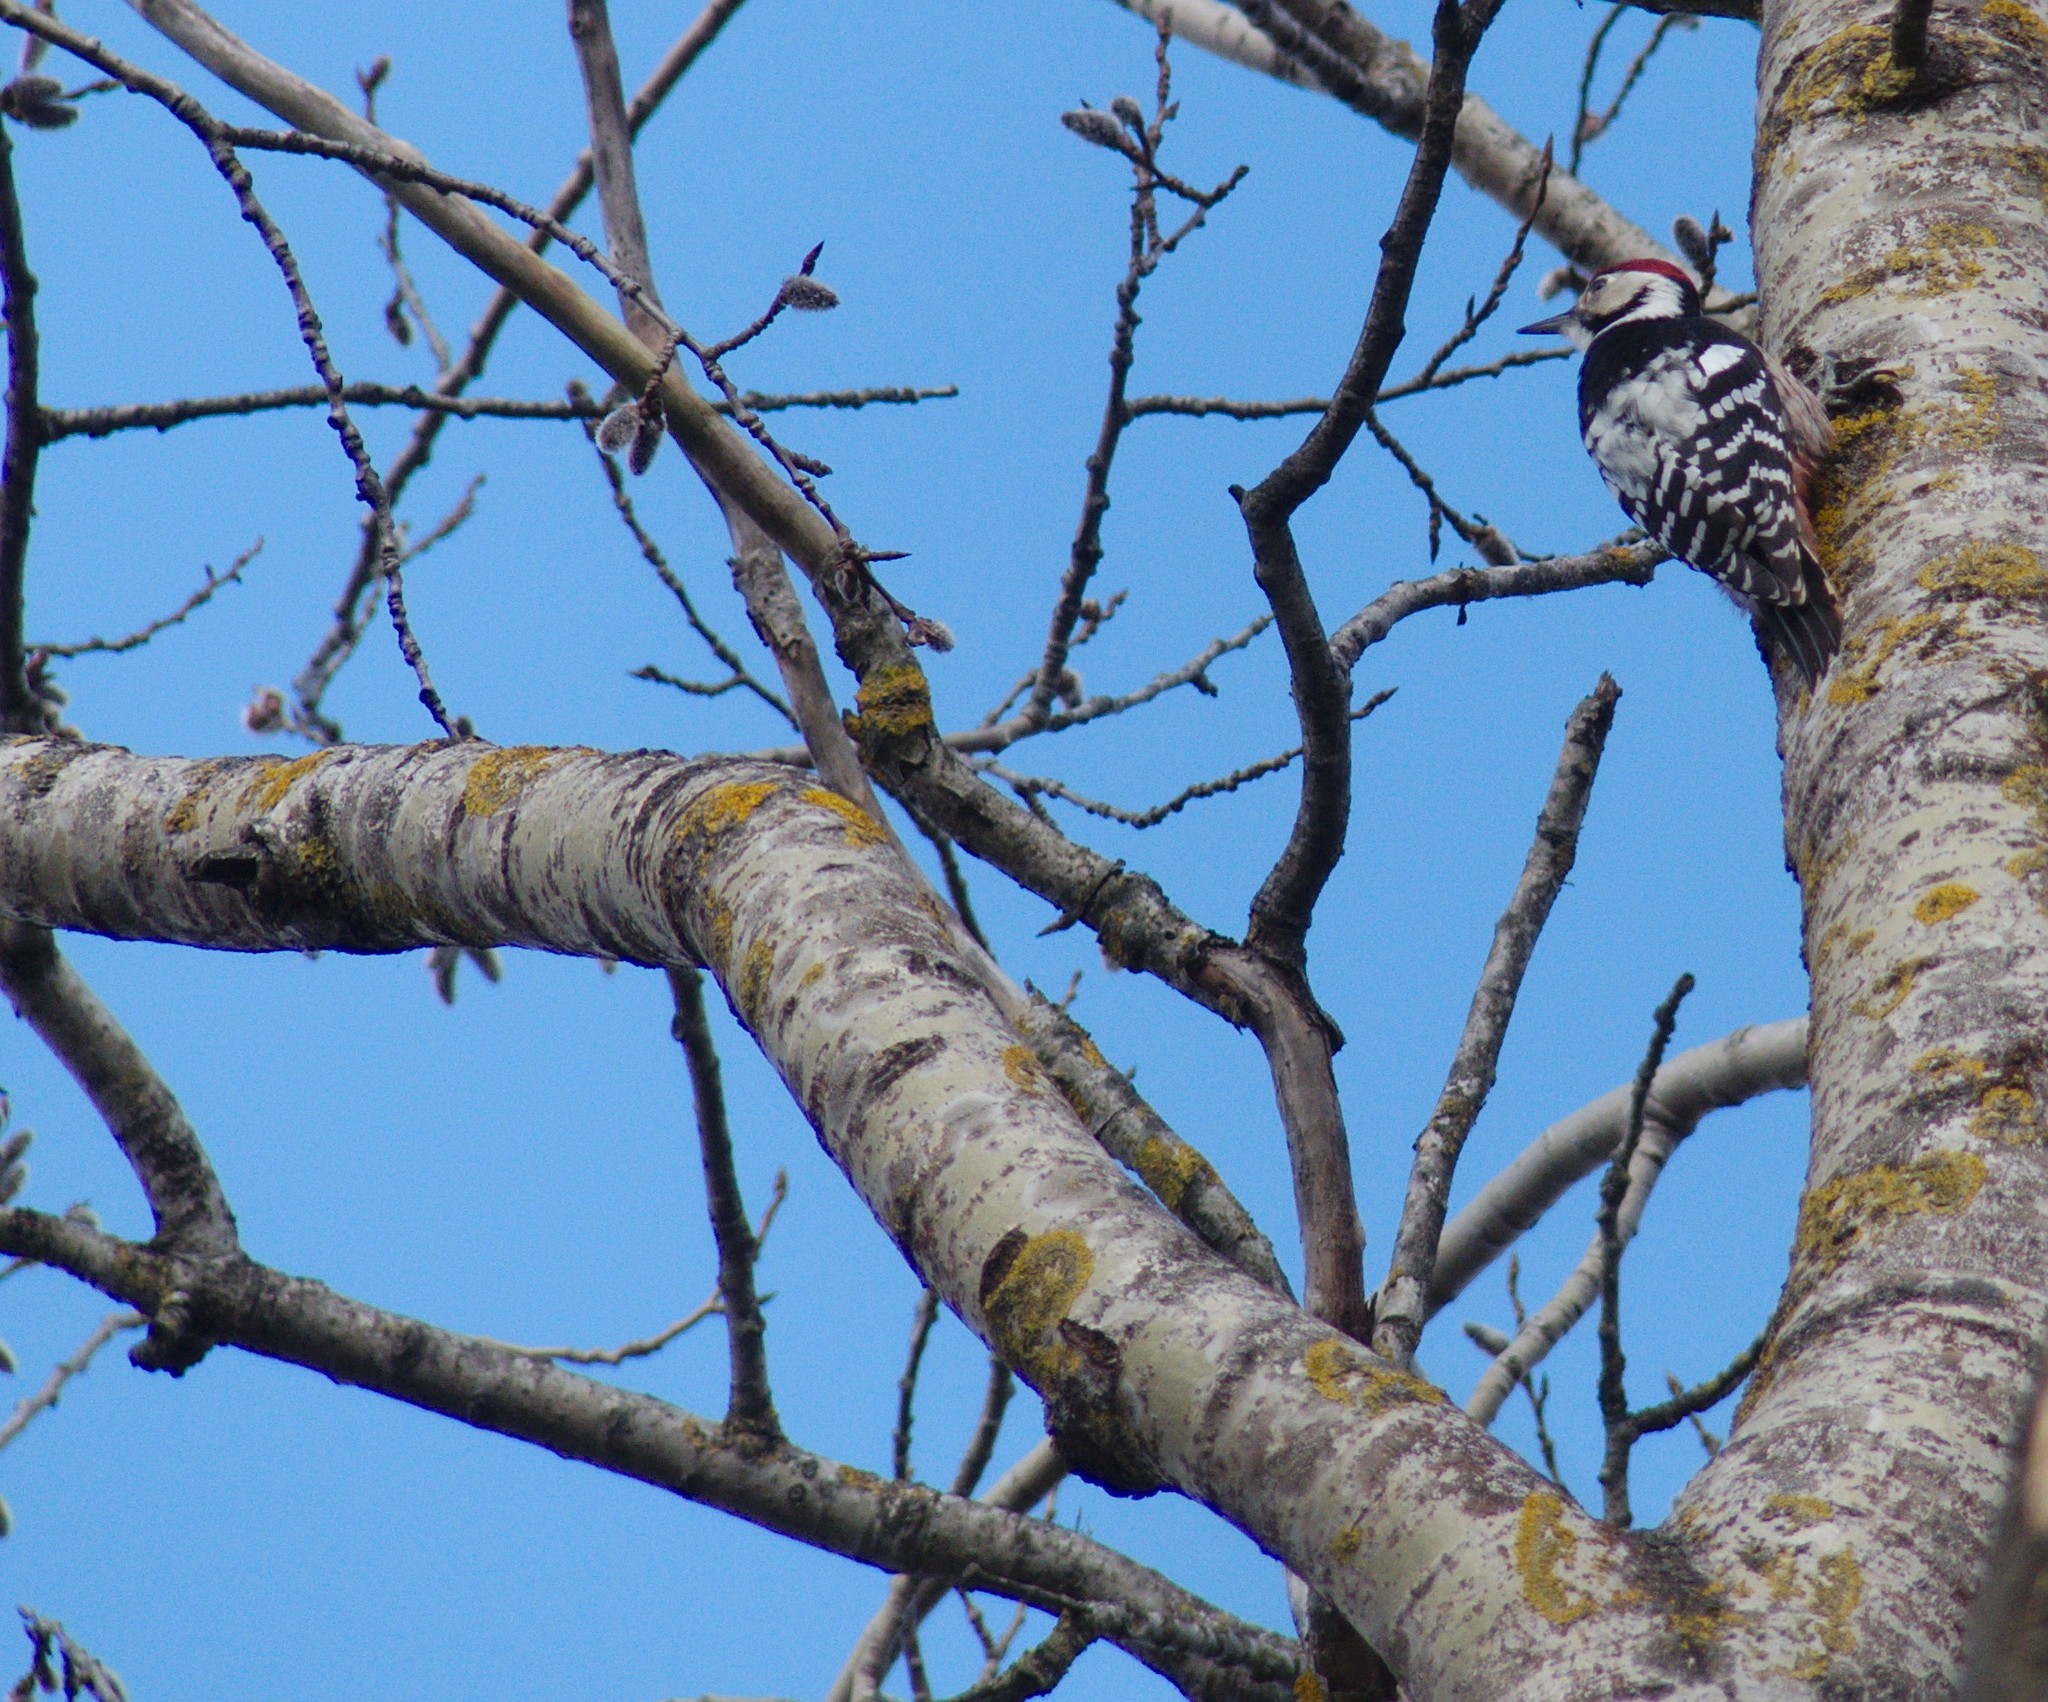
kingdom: Animalia
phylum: Chordata
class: Aves
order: Piciformes
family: Picidae
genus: Dendrocopos
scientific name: Dendrocopos leucotos
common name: White-backed woodpecker
